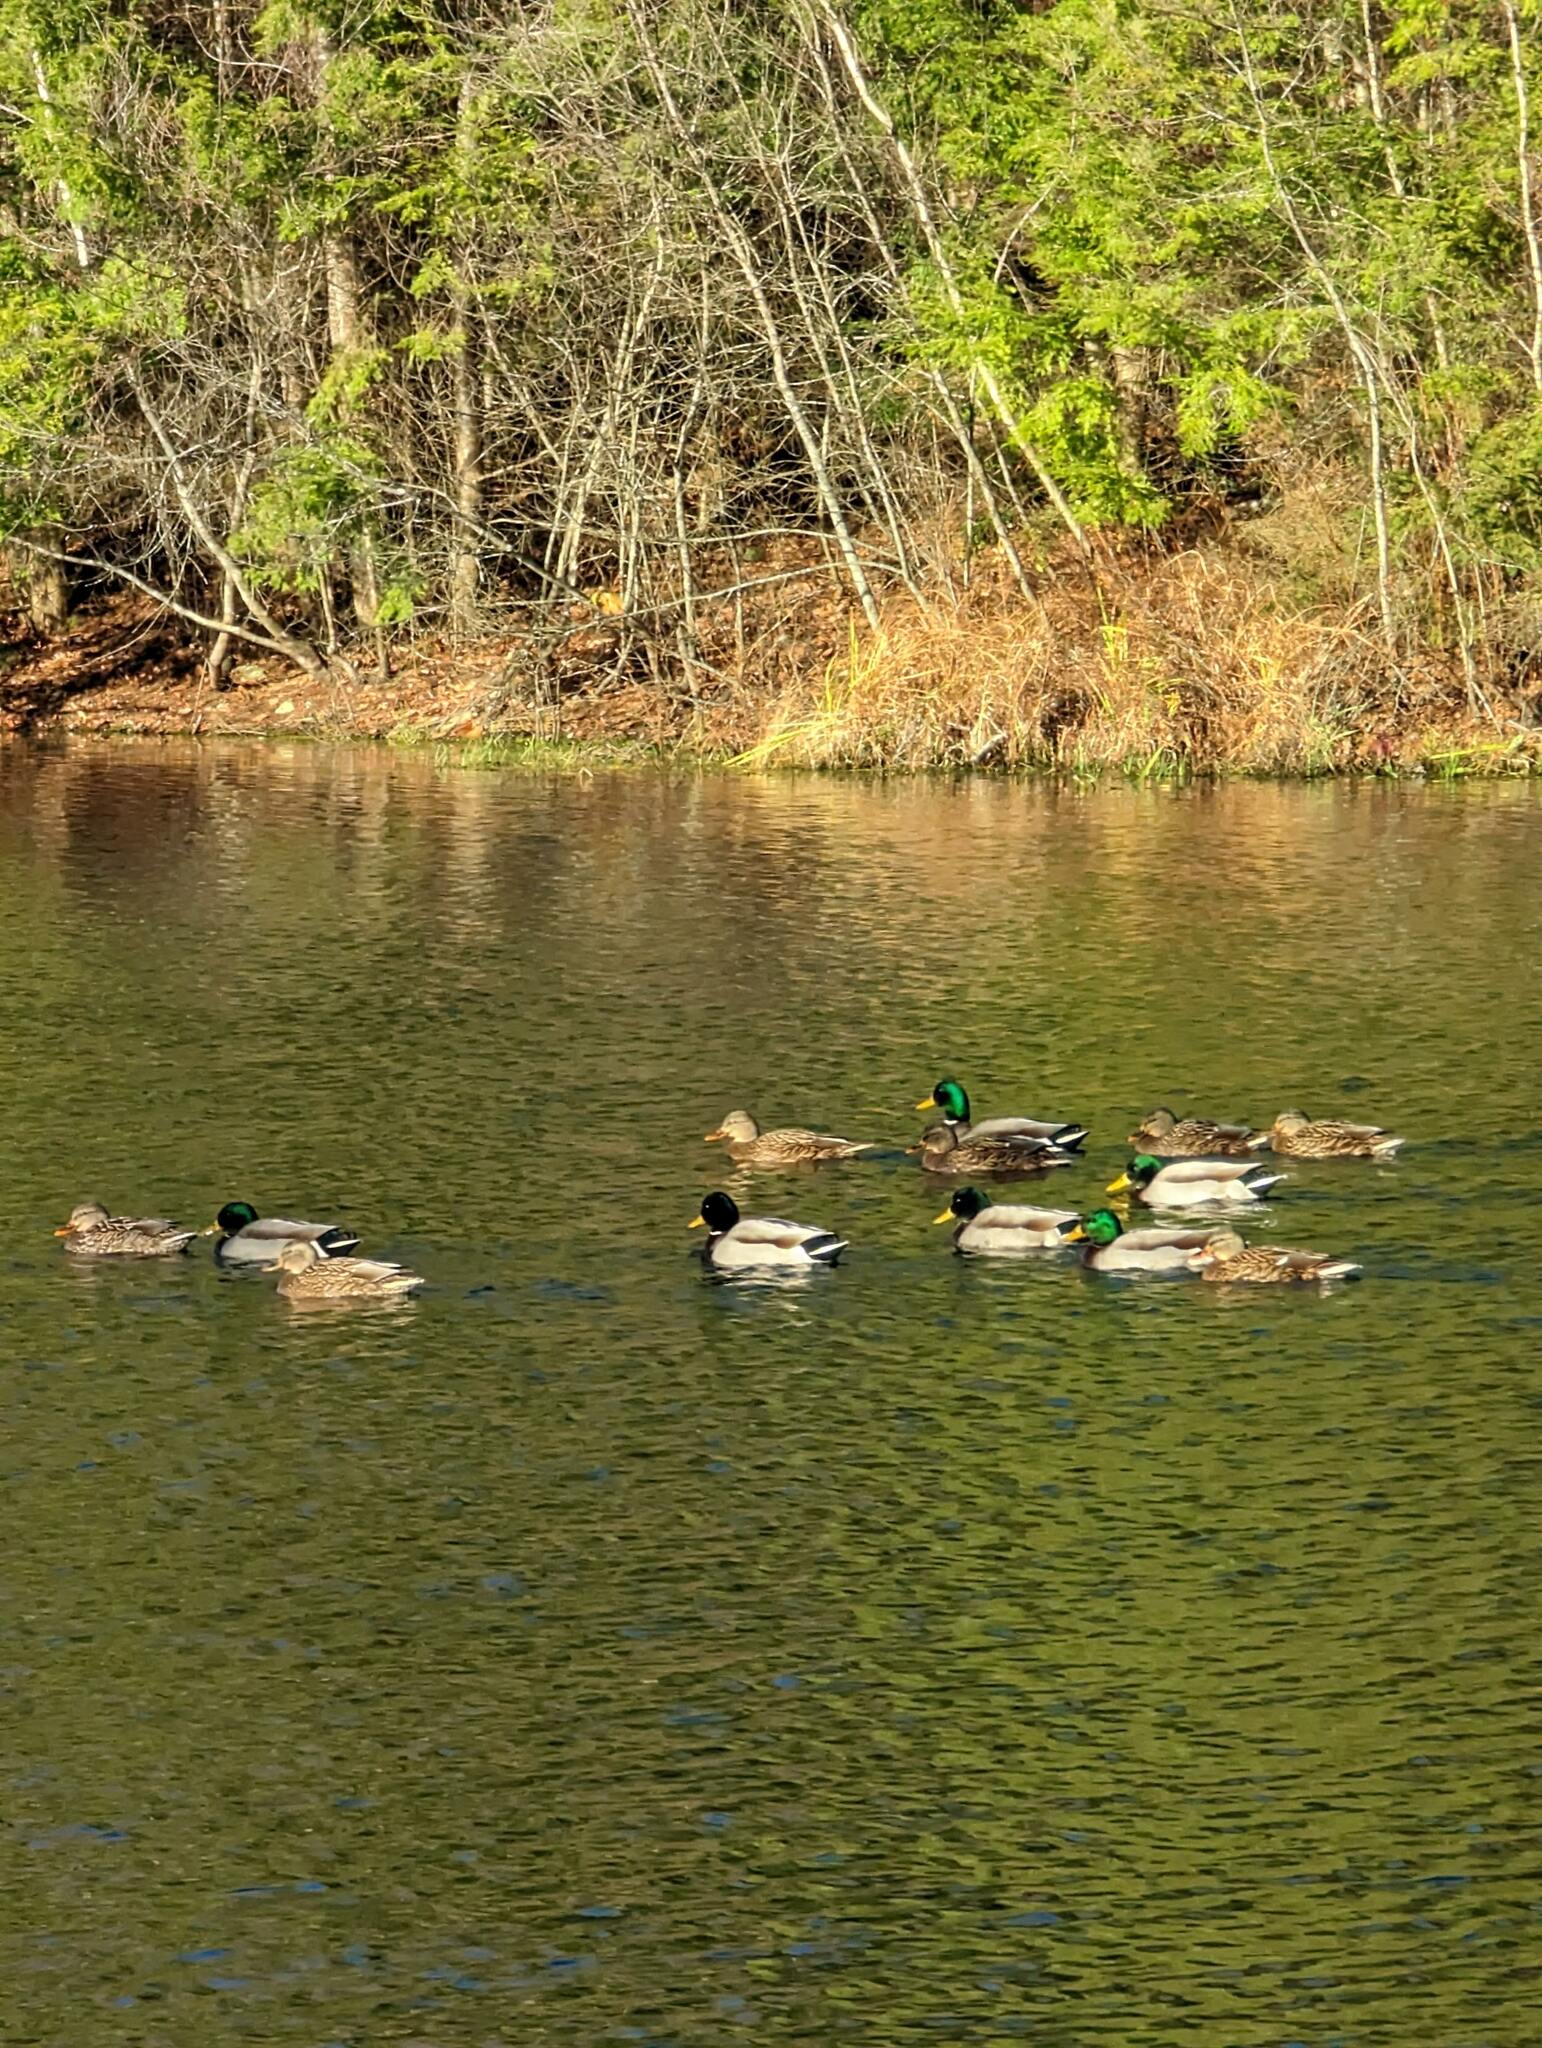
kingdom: Animalia
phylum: Chordata
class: Aves
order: Anseriformes
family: Anatidae
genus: Anas
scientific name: Anas platyrhynchos
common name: Mallard
